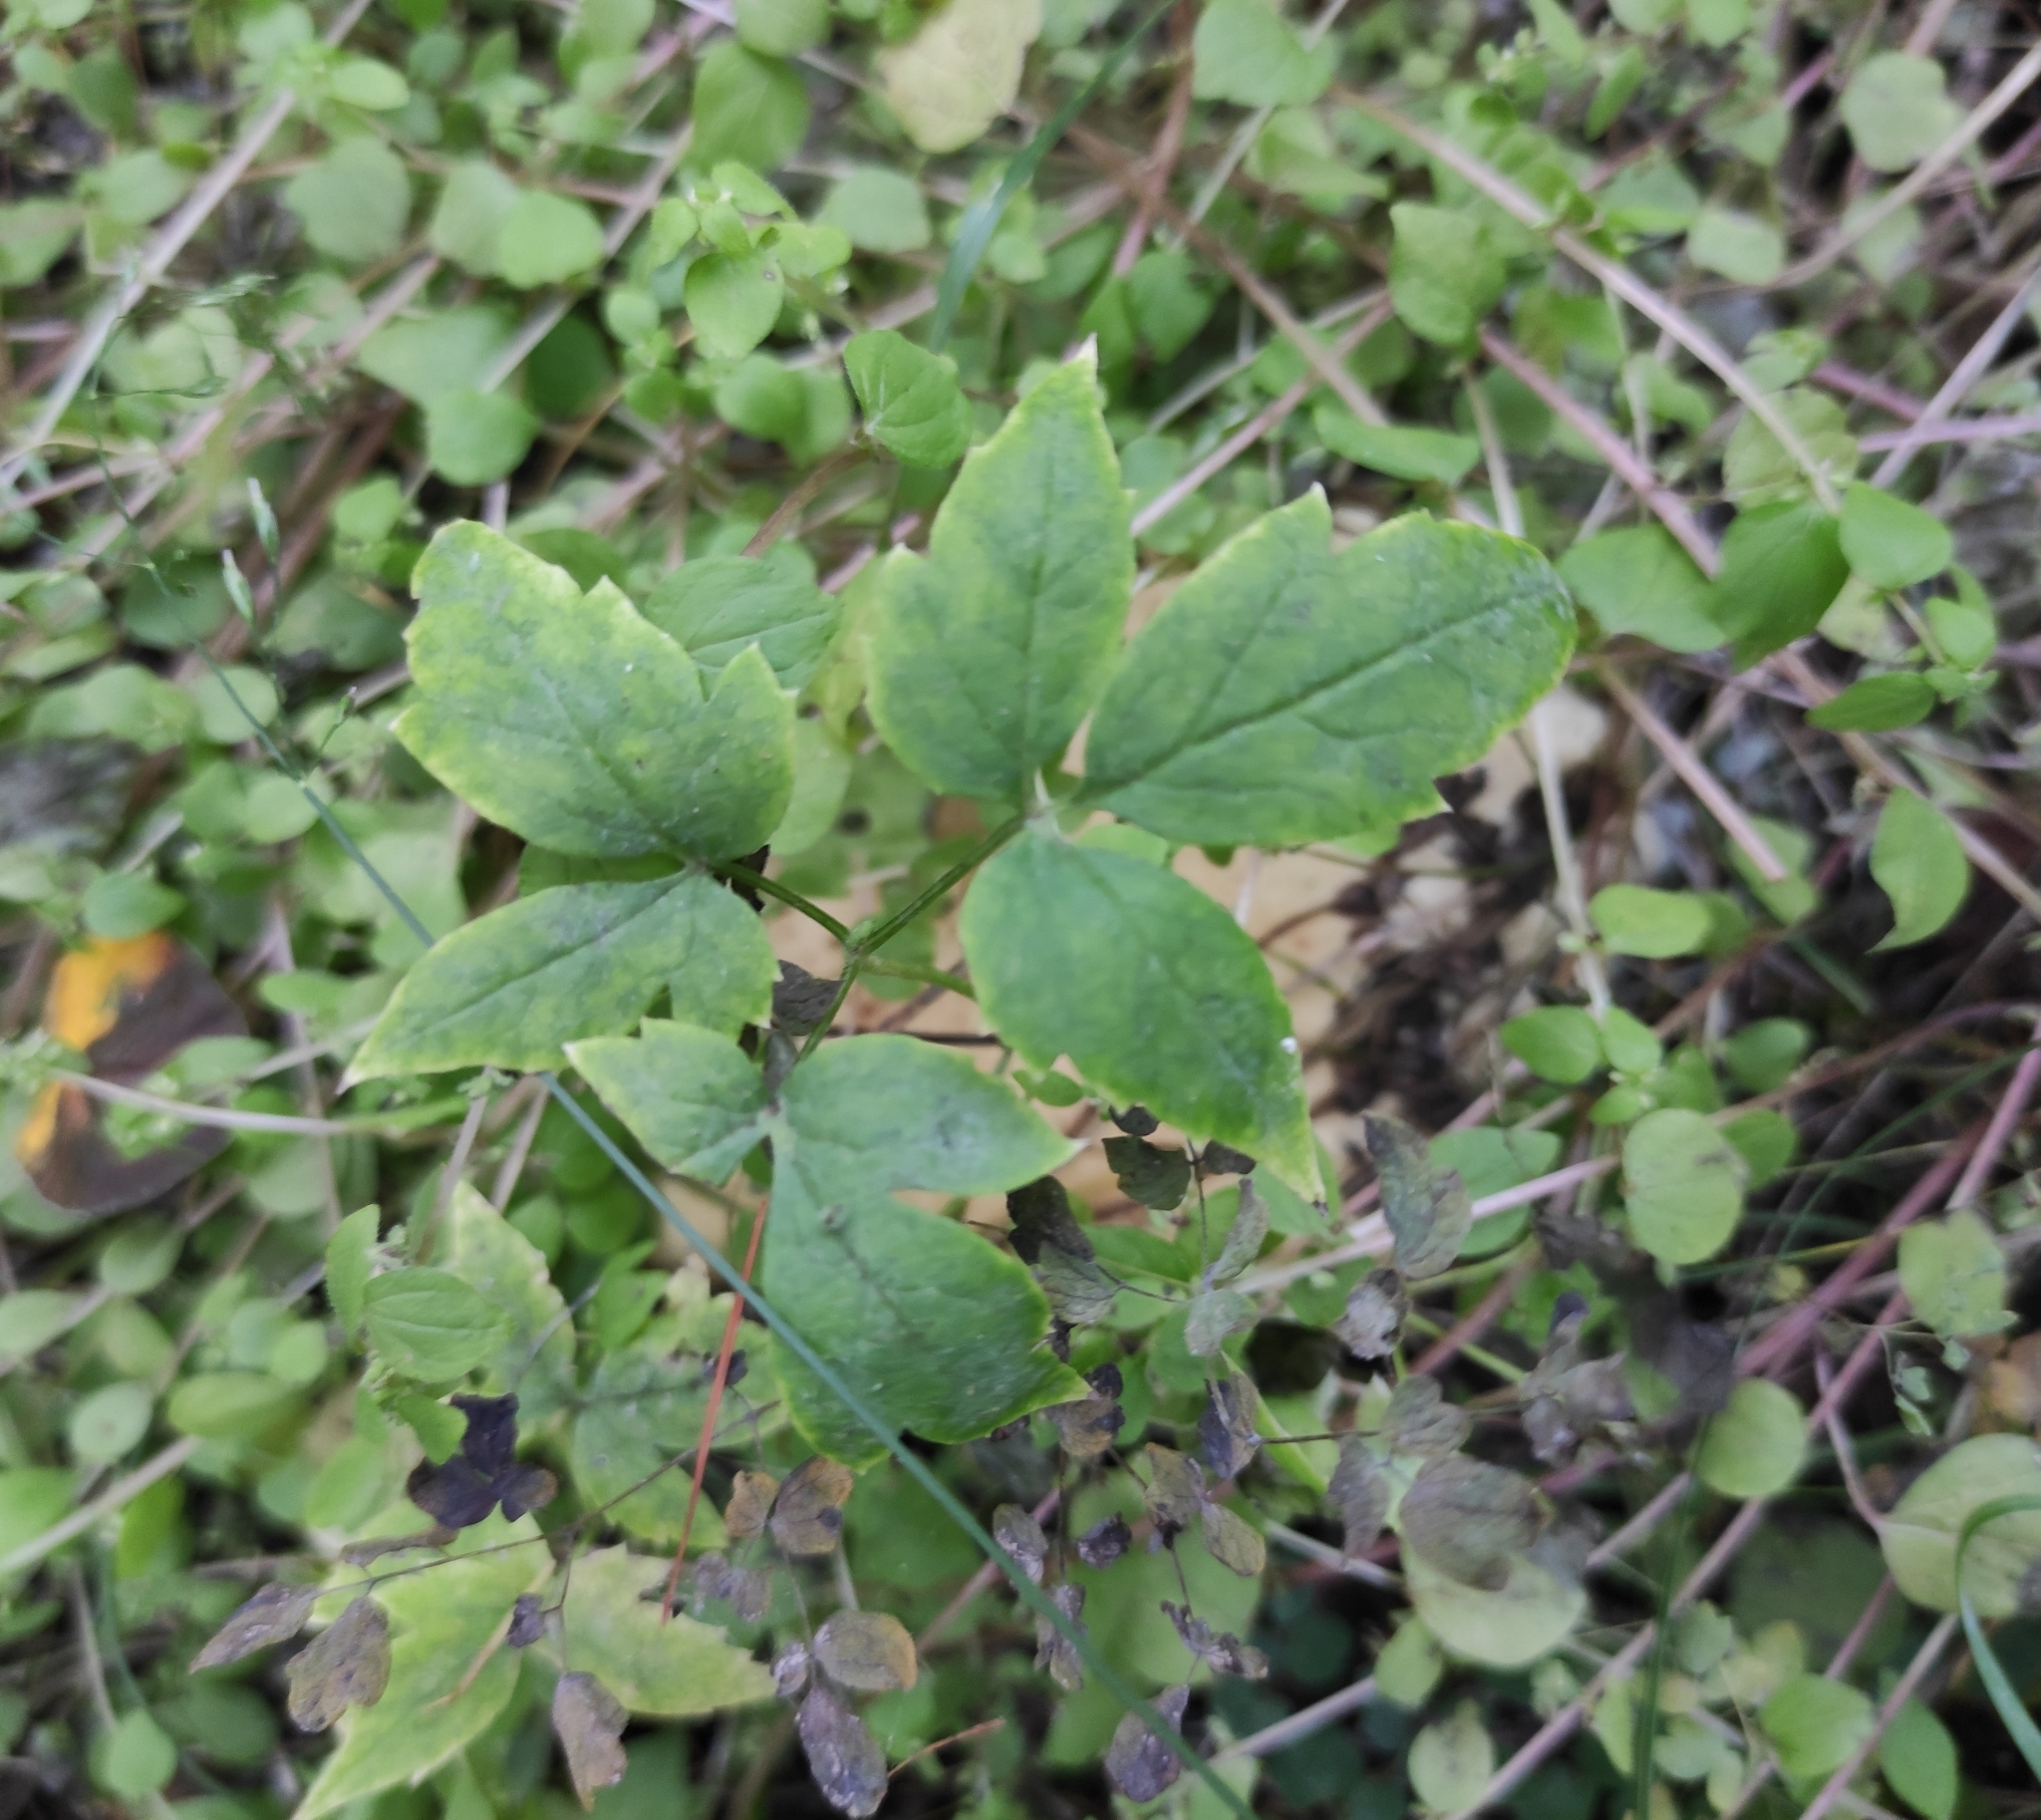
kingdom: Plantae
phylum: Tracheophyta
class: Magnoliopsida
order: Ranunculales
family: Ranunculaceae
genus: Clematis
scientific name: Clematis sibirica
